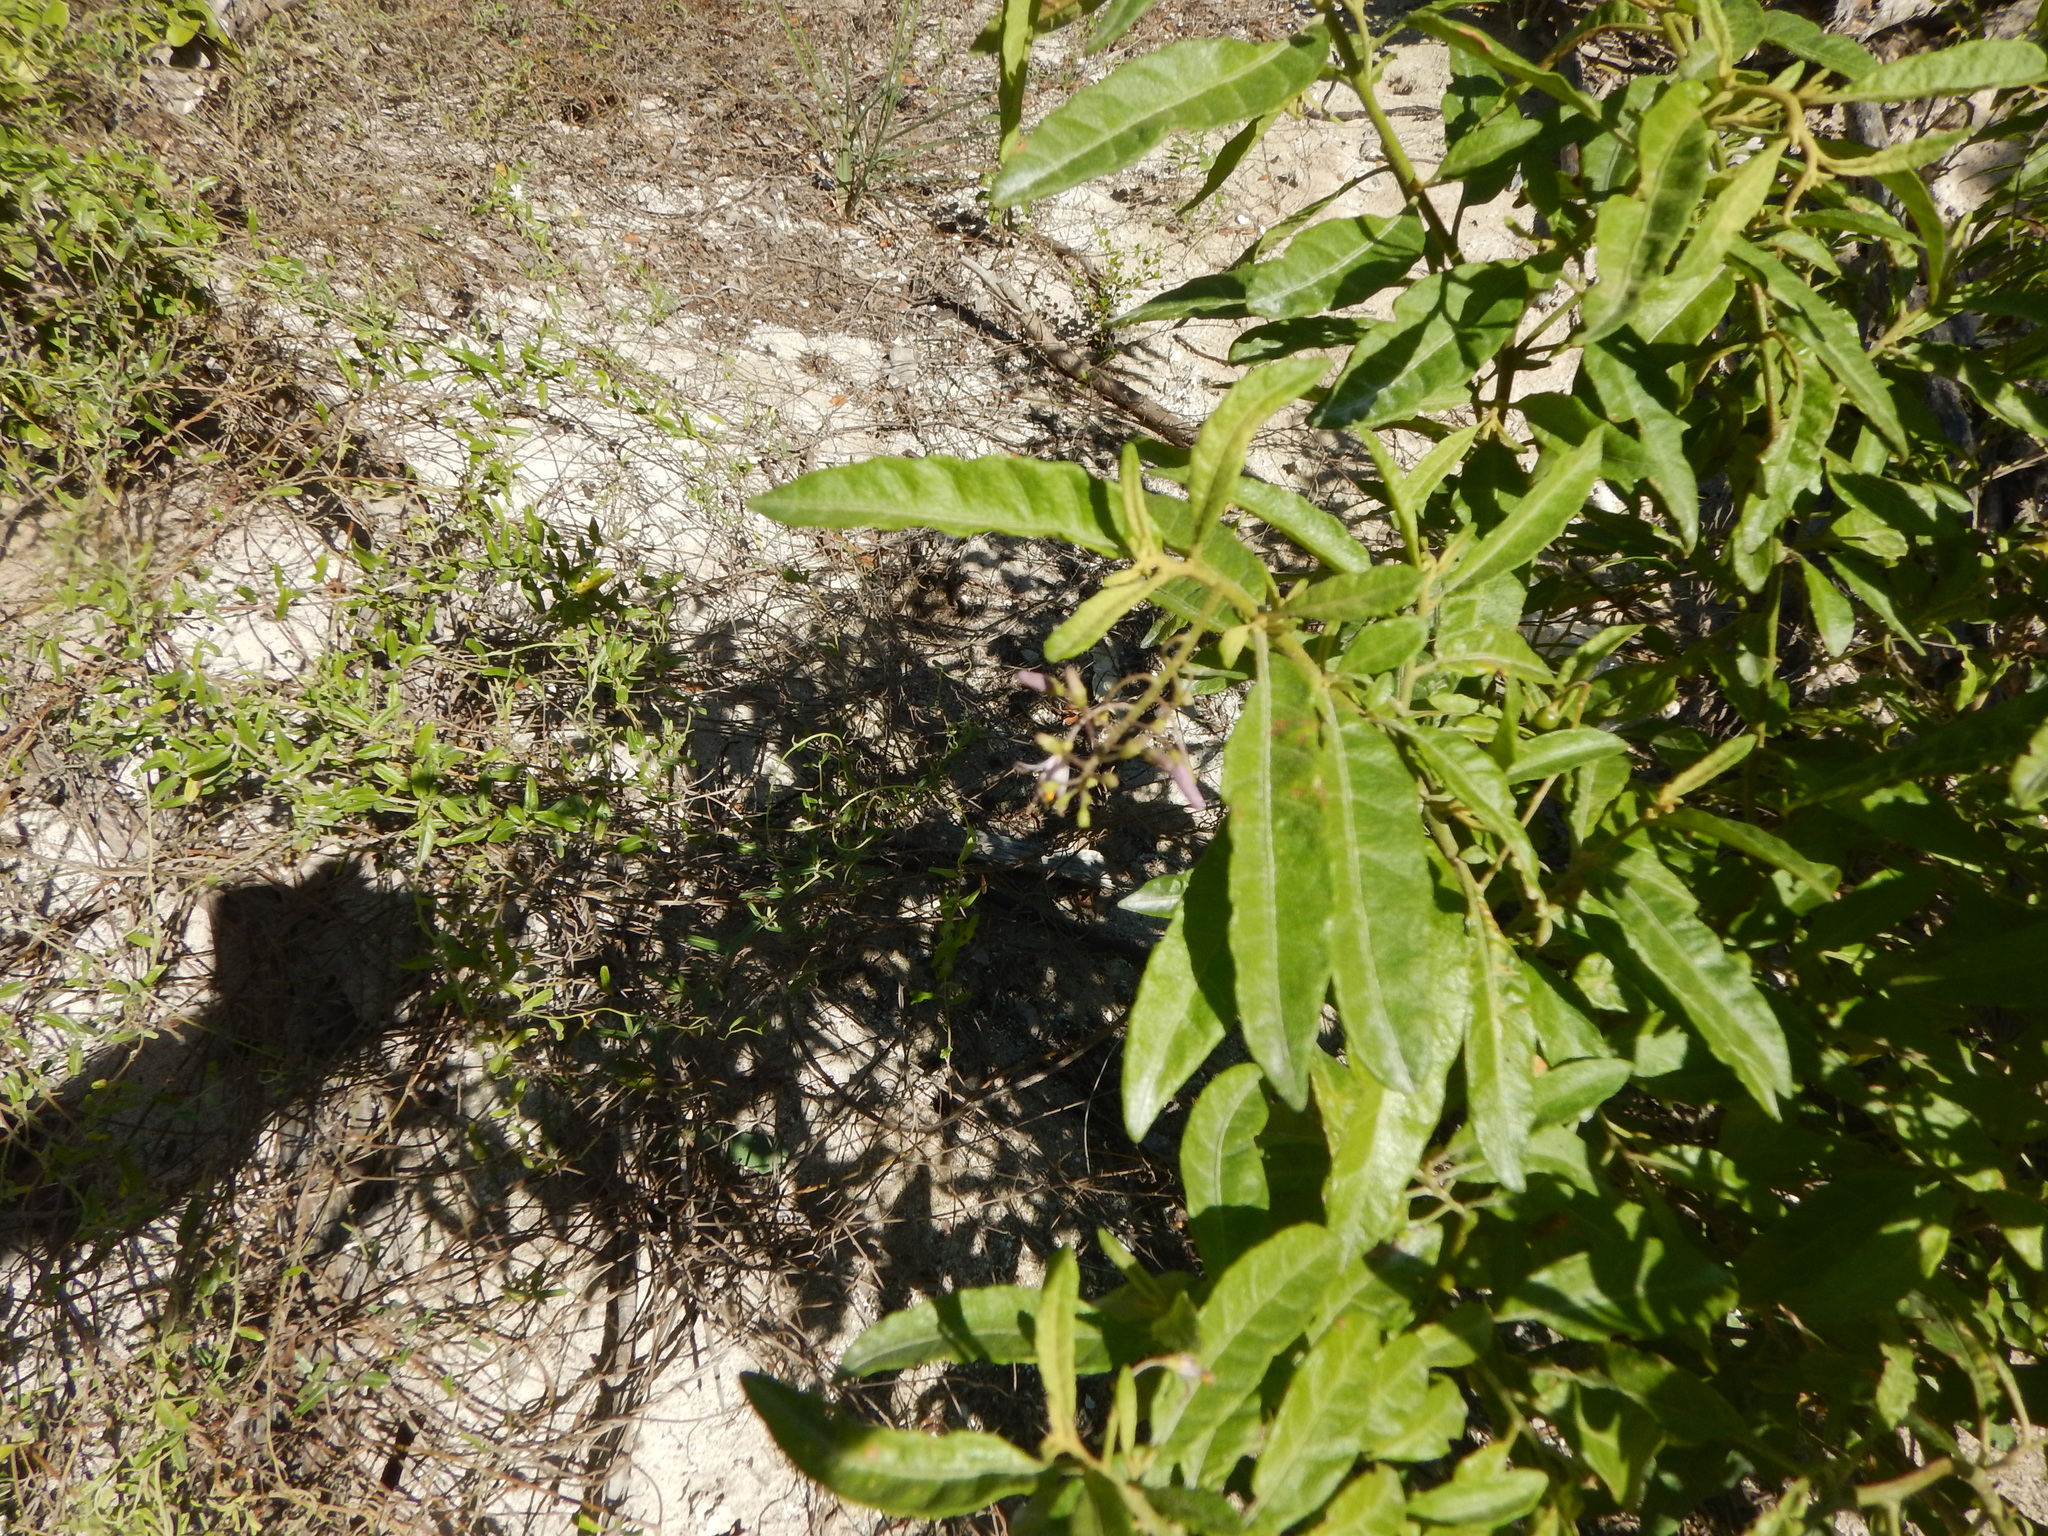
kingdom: Plantae
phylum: Tracheophyta
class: Magnoliopsida
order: Solanales
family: Solanaceae
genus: Solanum
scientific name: Solanum bahamense
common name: Canker-berry
